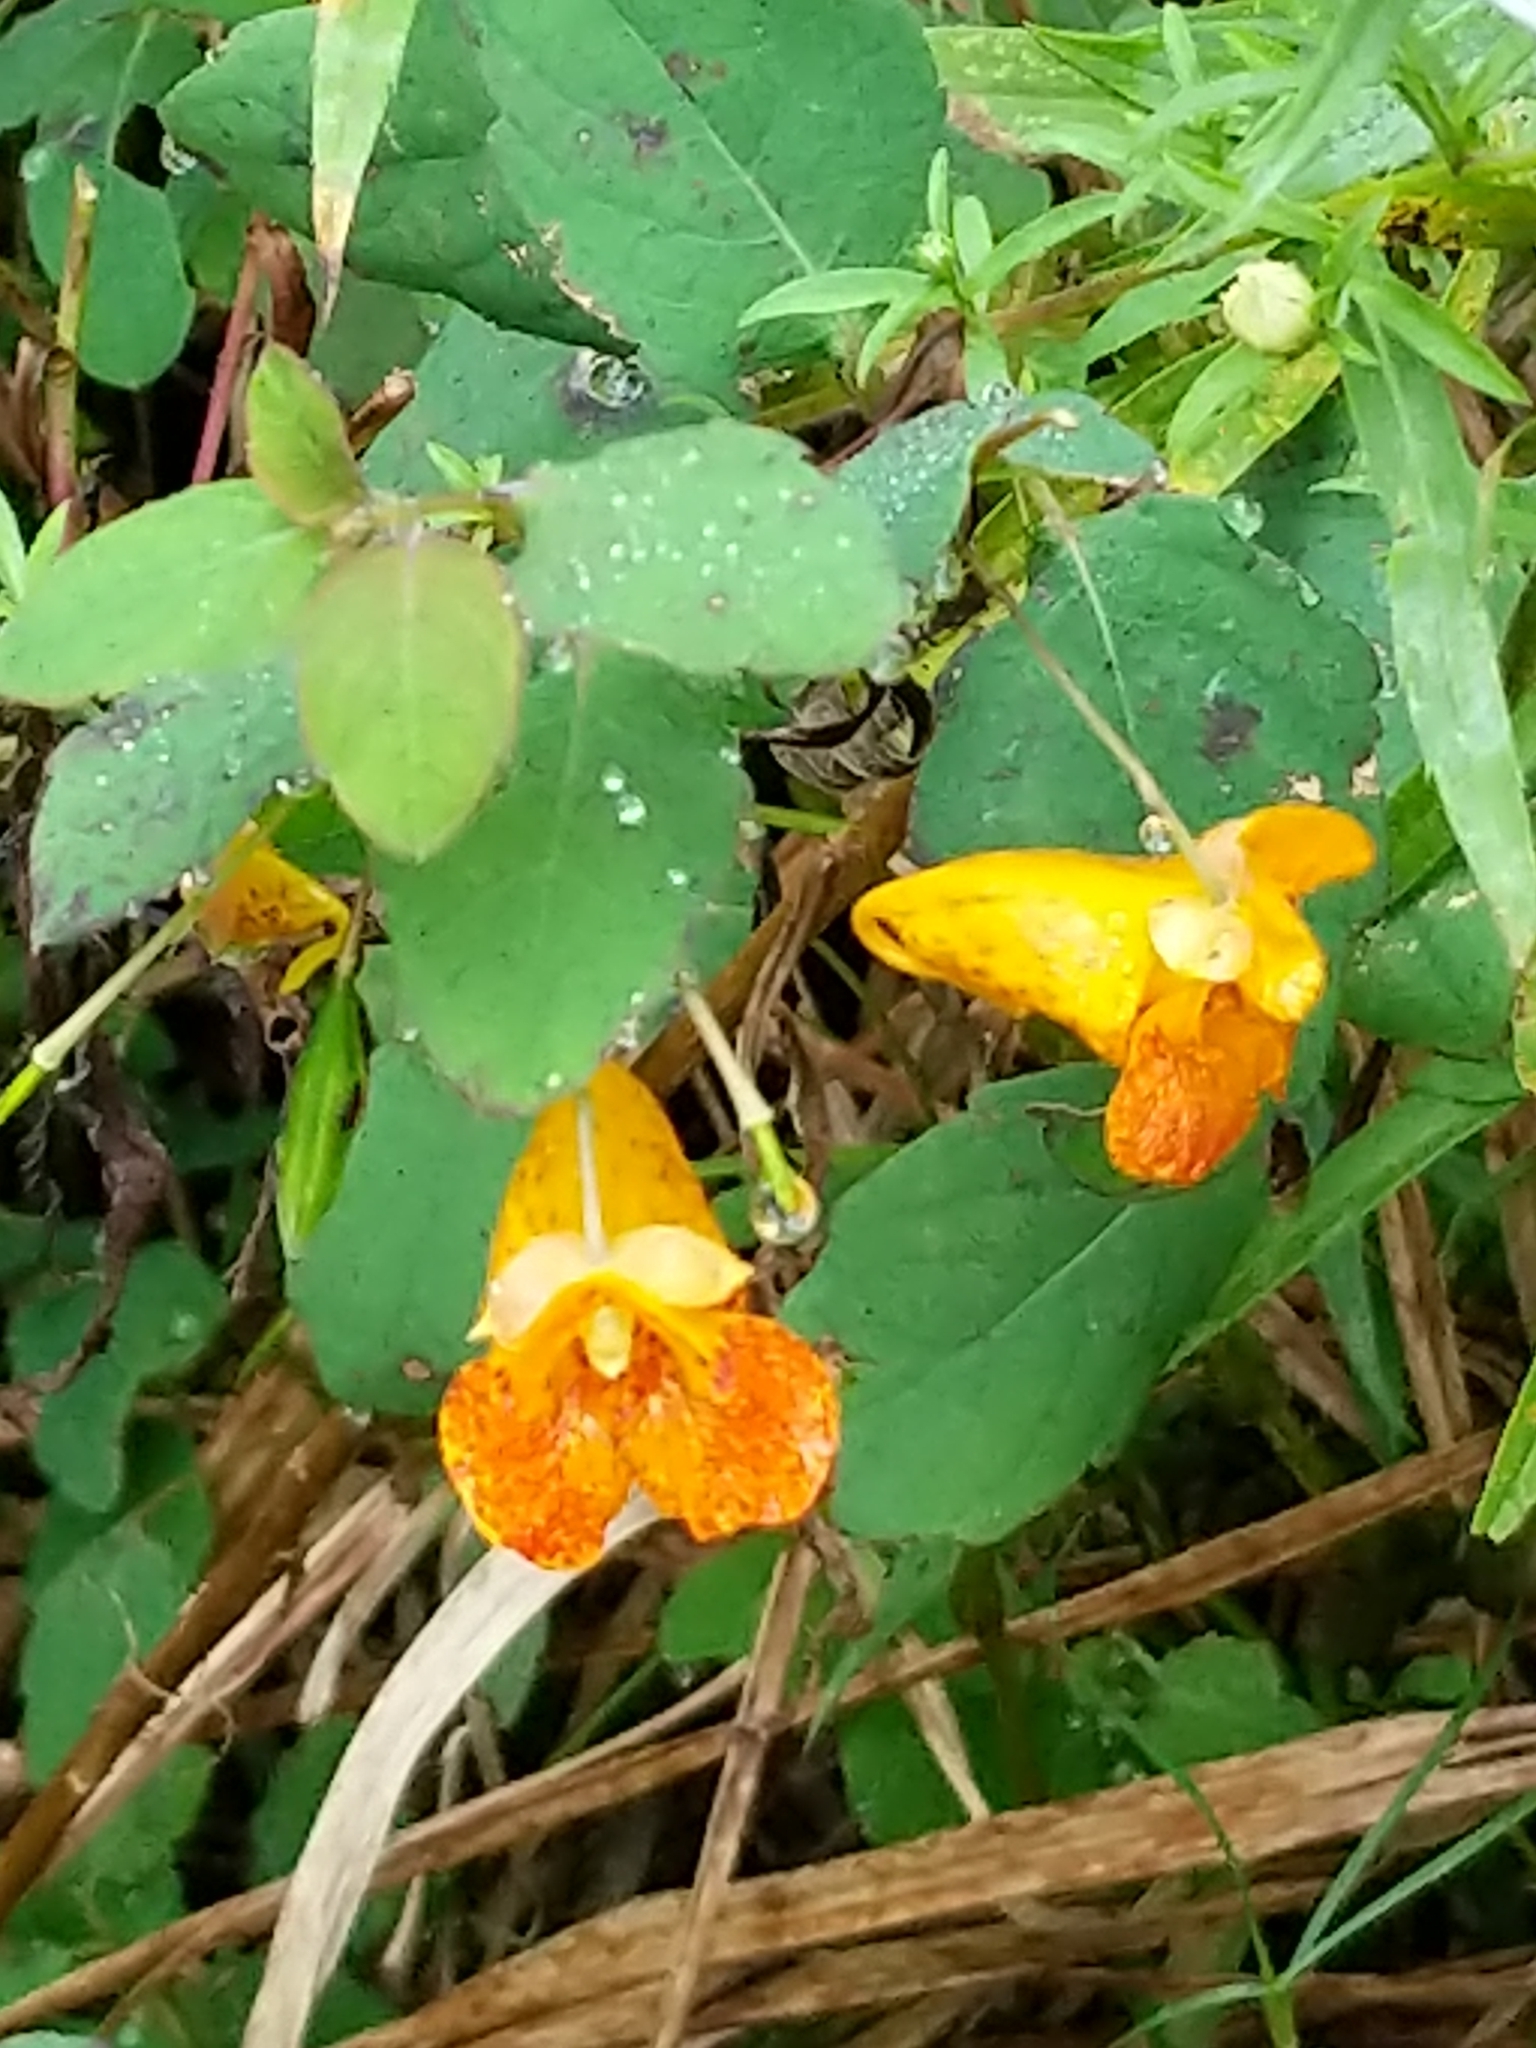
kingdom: Plantae
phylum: Tracheophyta
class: Magnoliopsida
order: Ericales
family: Balsaminaceae
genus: Impatiens
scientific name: Impatiens capensis
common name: Orange balsam
